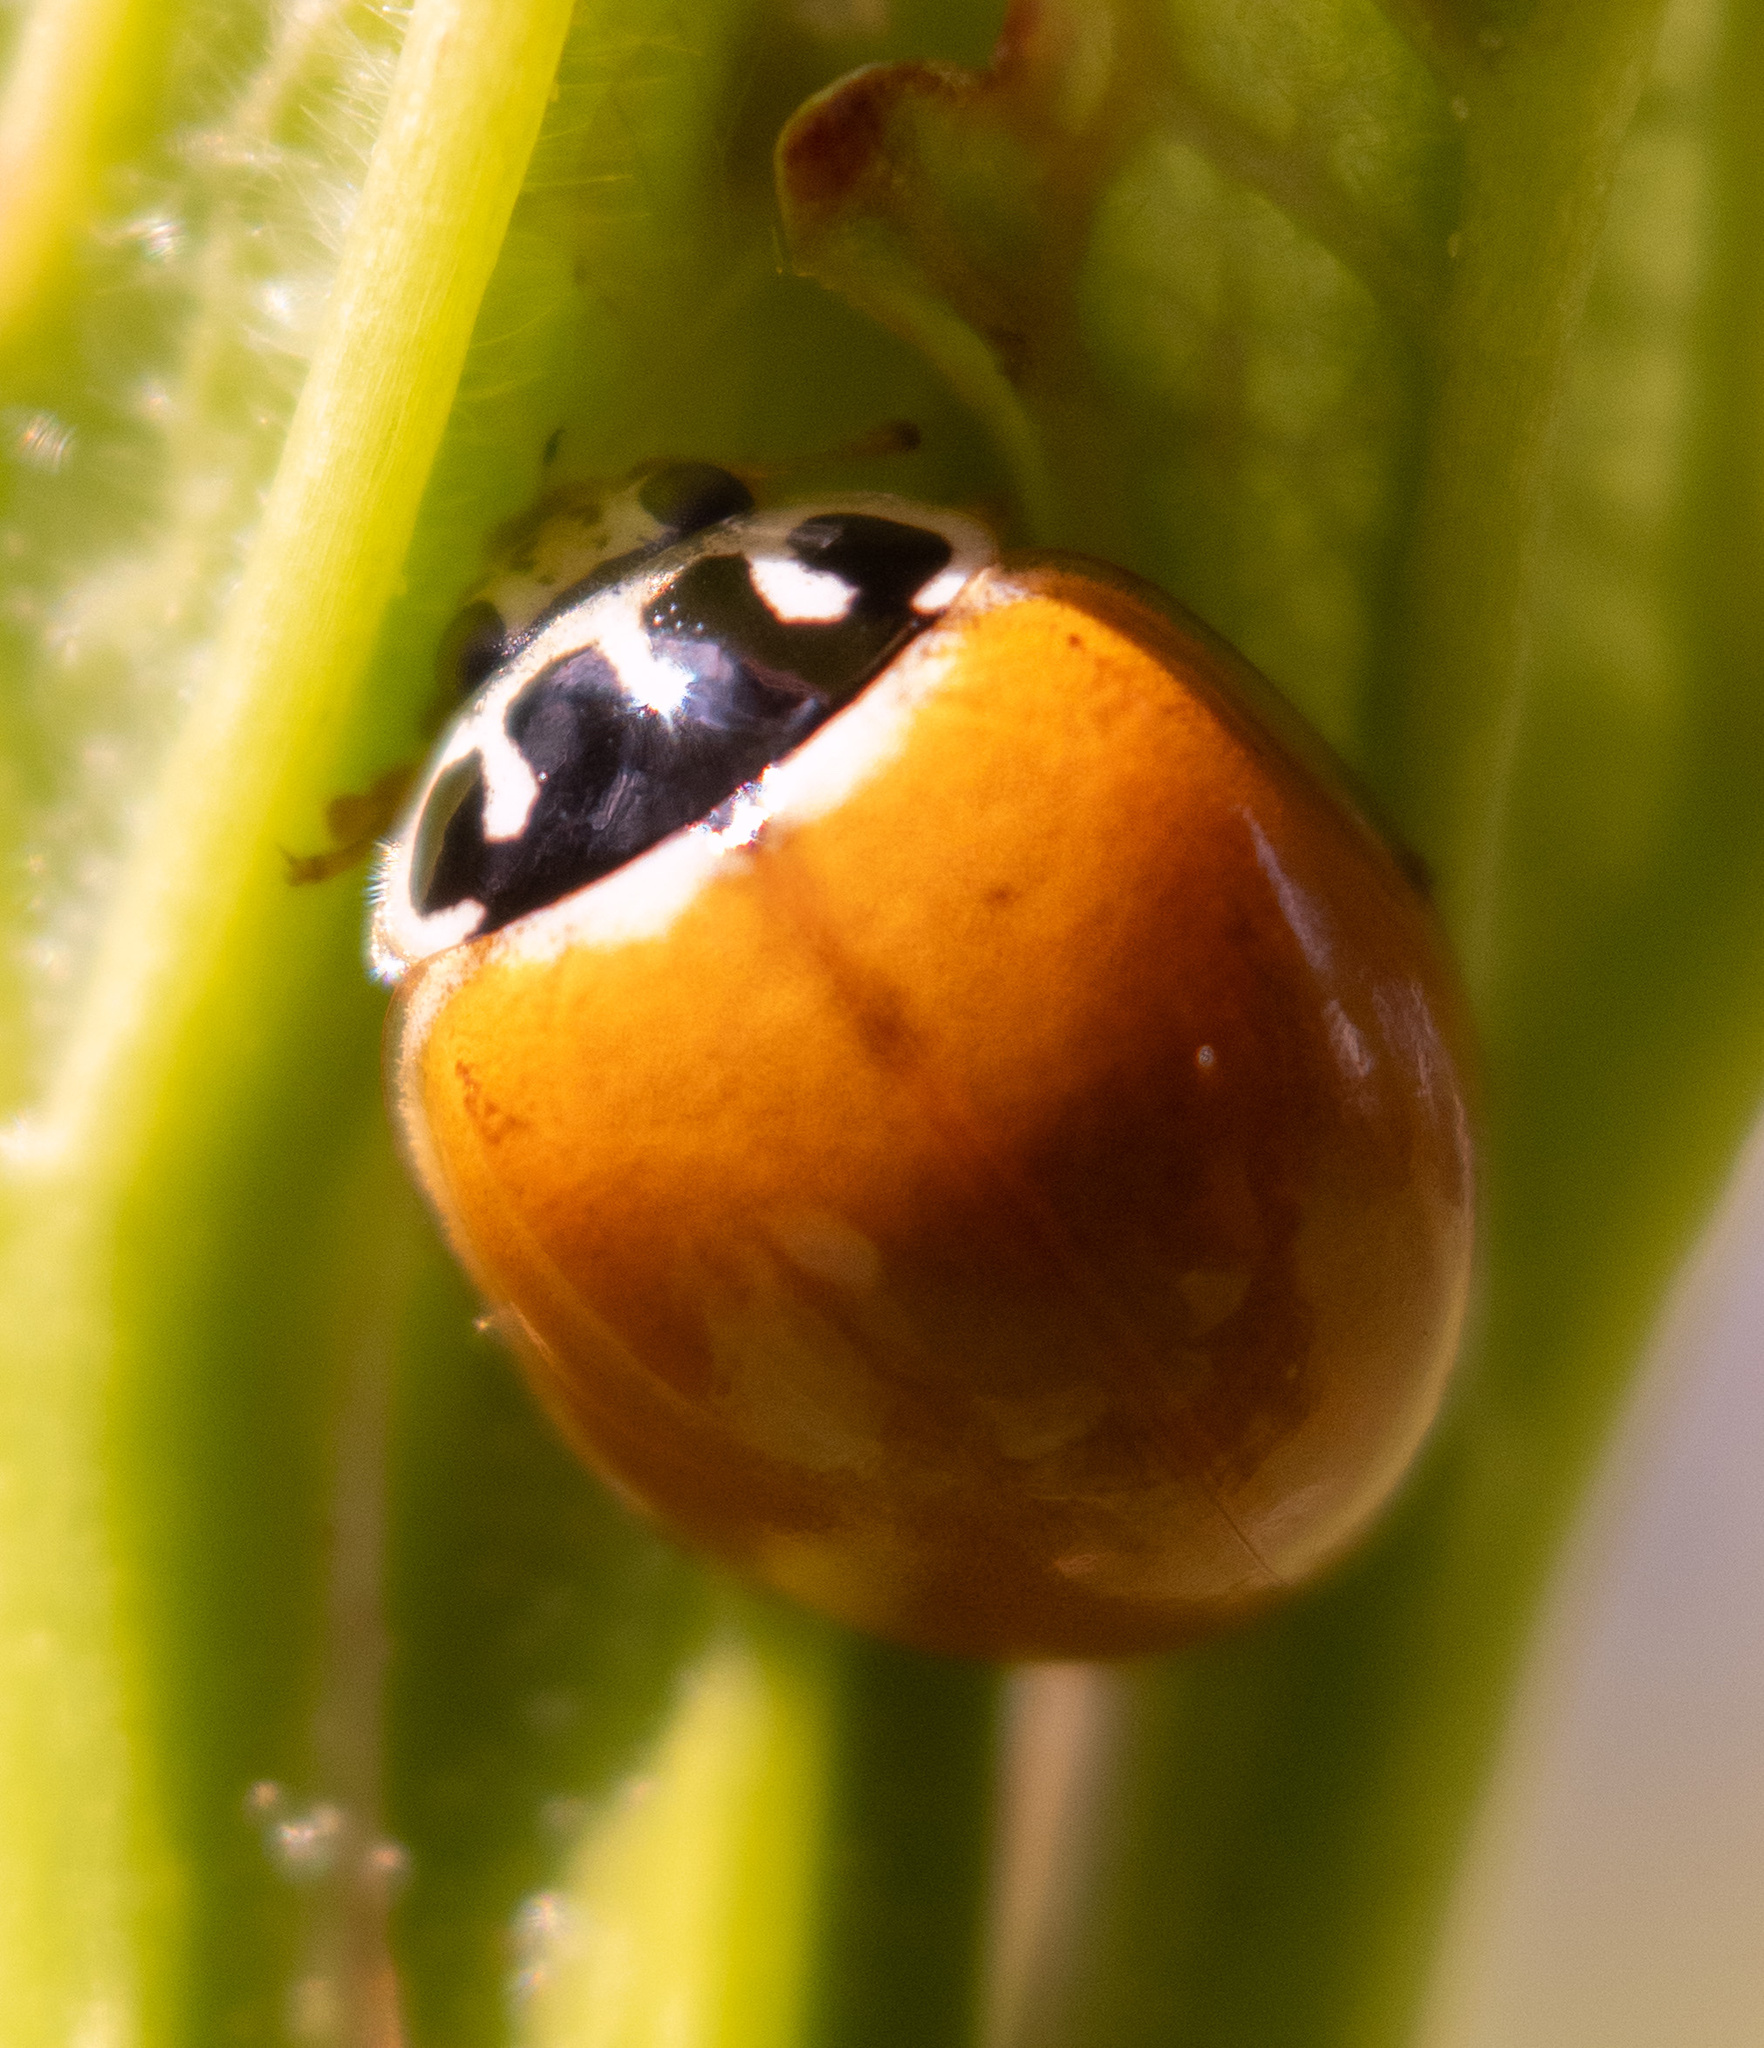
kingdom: Animalia
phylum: Arthropoda
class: Insecta
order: Coleoptera
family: Coccinellidae
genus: Cycloneda
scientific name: Cycloneda munda
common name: Polished lady beetle
